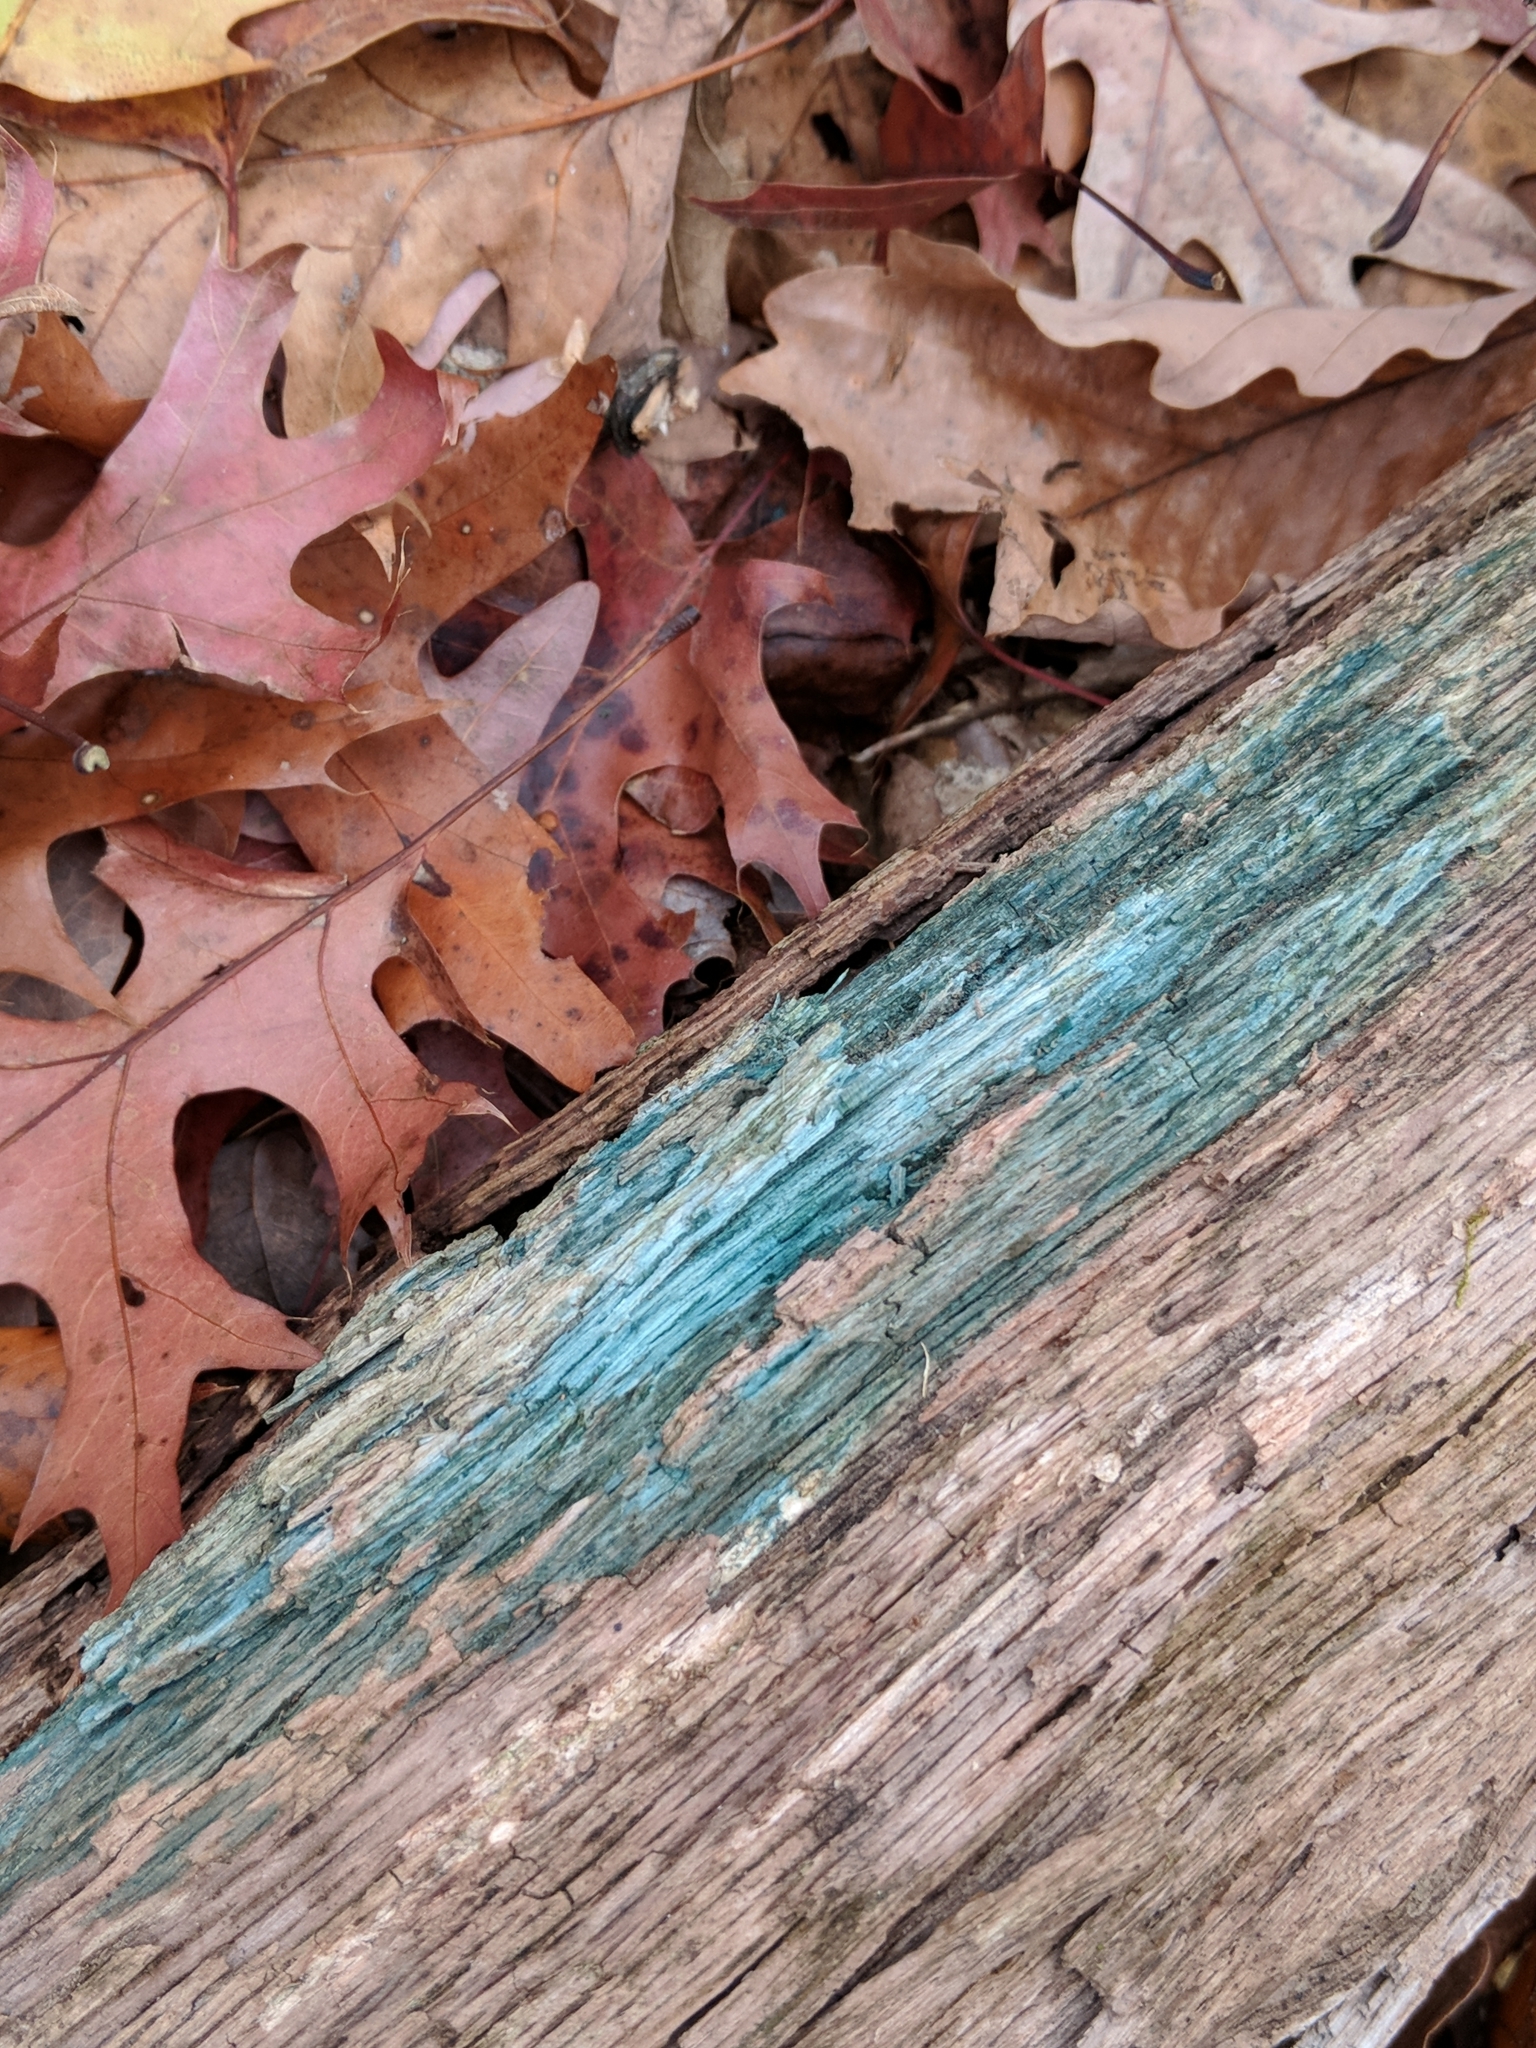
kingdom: Fungi
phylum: Ascomycota
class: Leotiomycetes
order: Helotiales
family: Chlorociboriaceae
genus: Chlorociboria
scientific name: Chlorociboria
